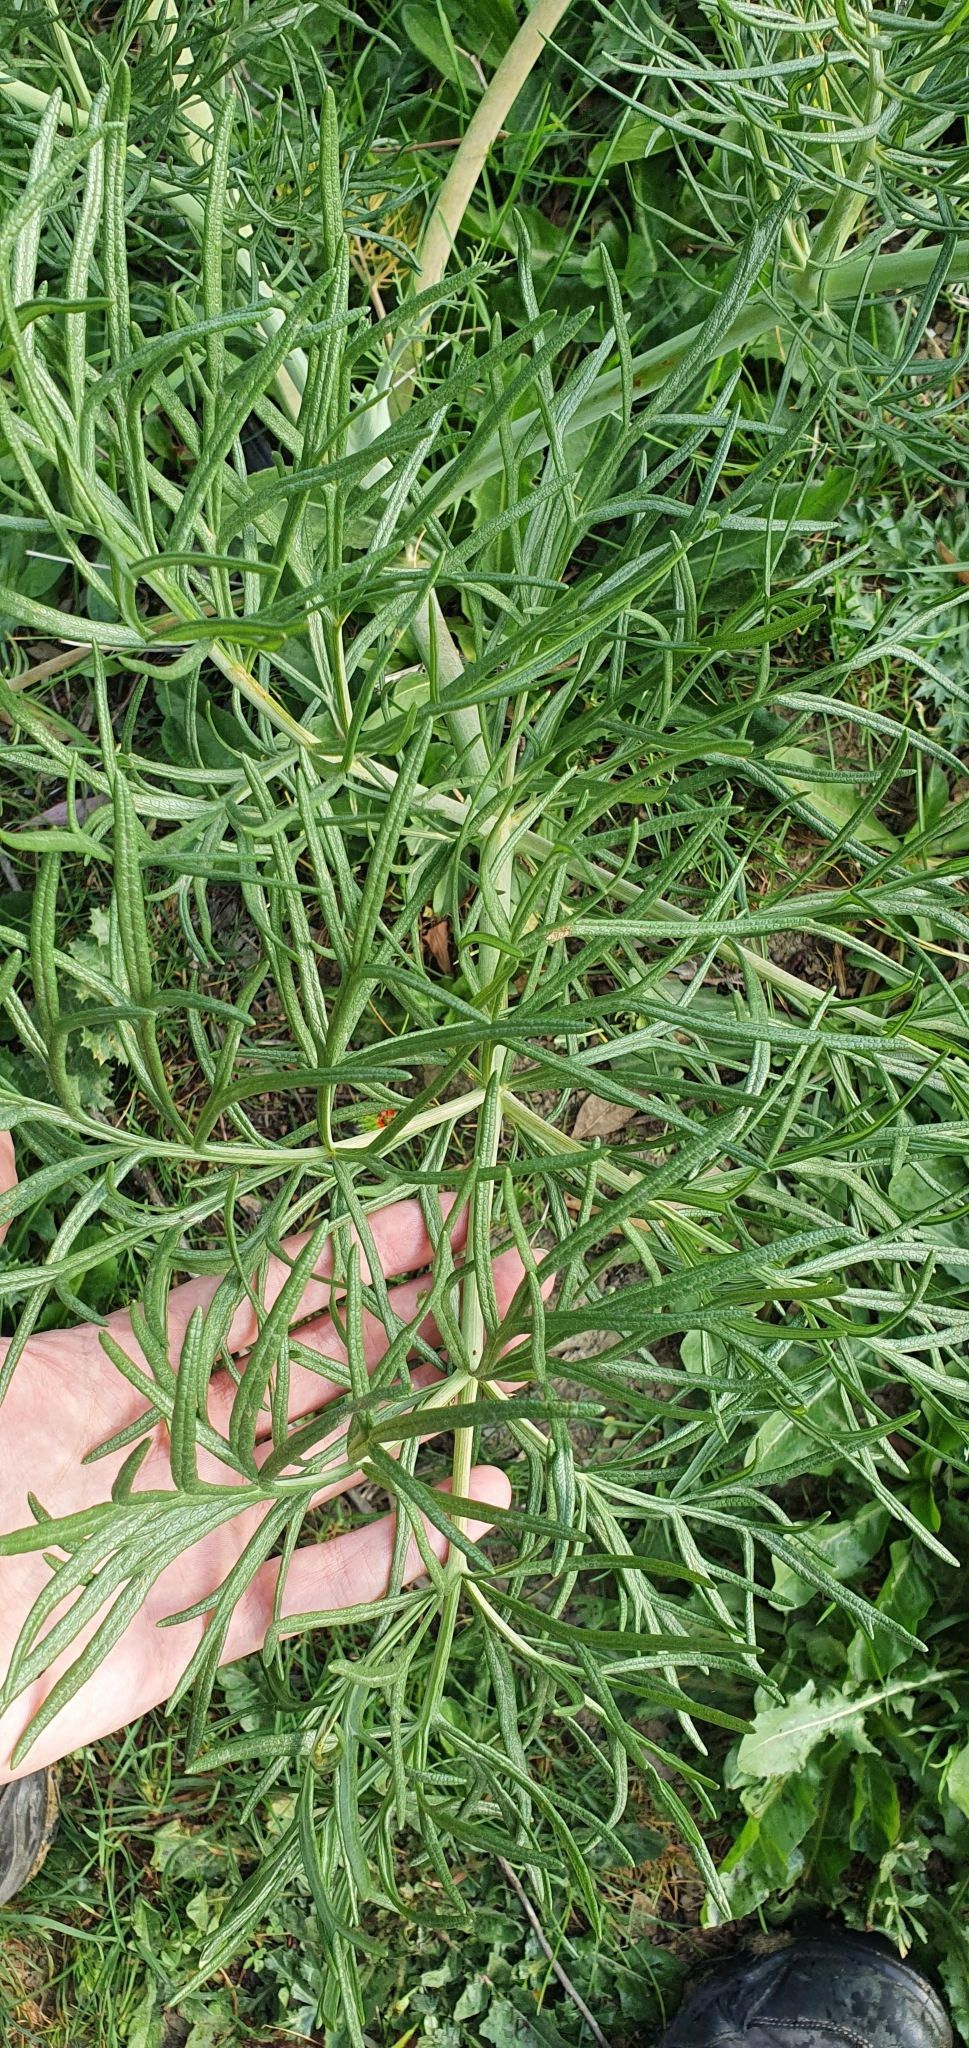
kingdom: Plantae
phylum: Tracheophyta
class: Magnoliopsida
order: Apiales
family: Apiaceae
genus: Thapsia
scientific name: Thapsia garganica
